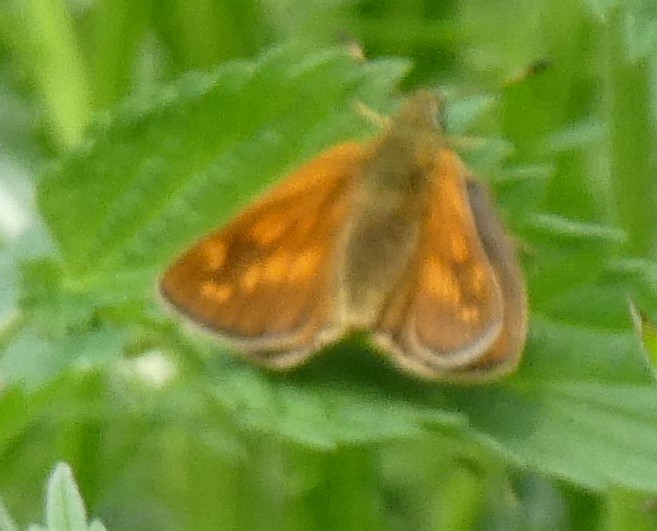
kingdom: Animalia
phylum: Arthropoda
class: Insecta
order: Lepidoptera
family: Hesperiidae
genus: Ochlodes
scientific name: Ochlodes venata
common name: Large skipper
